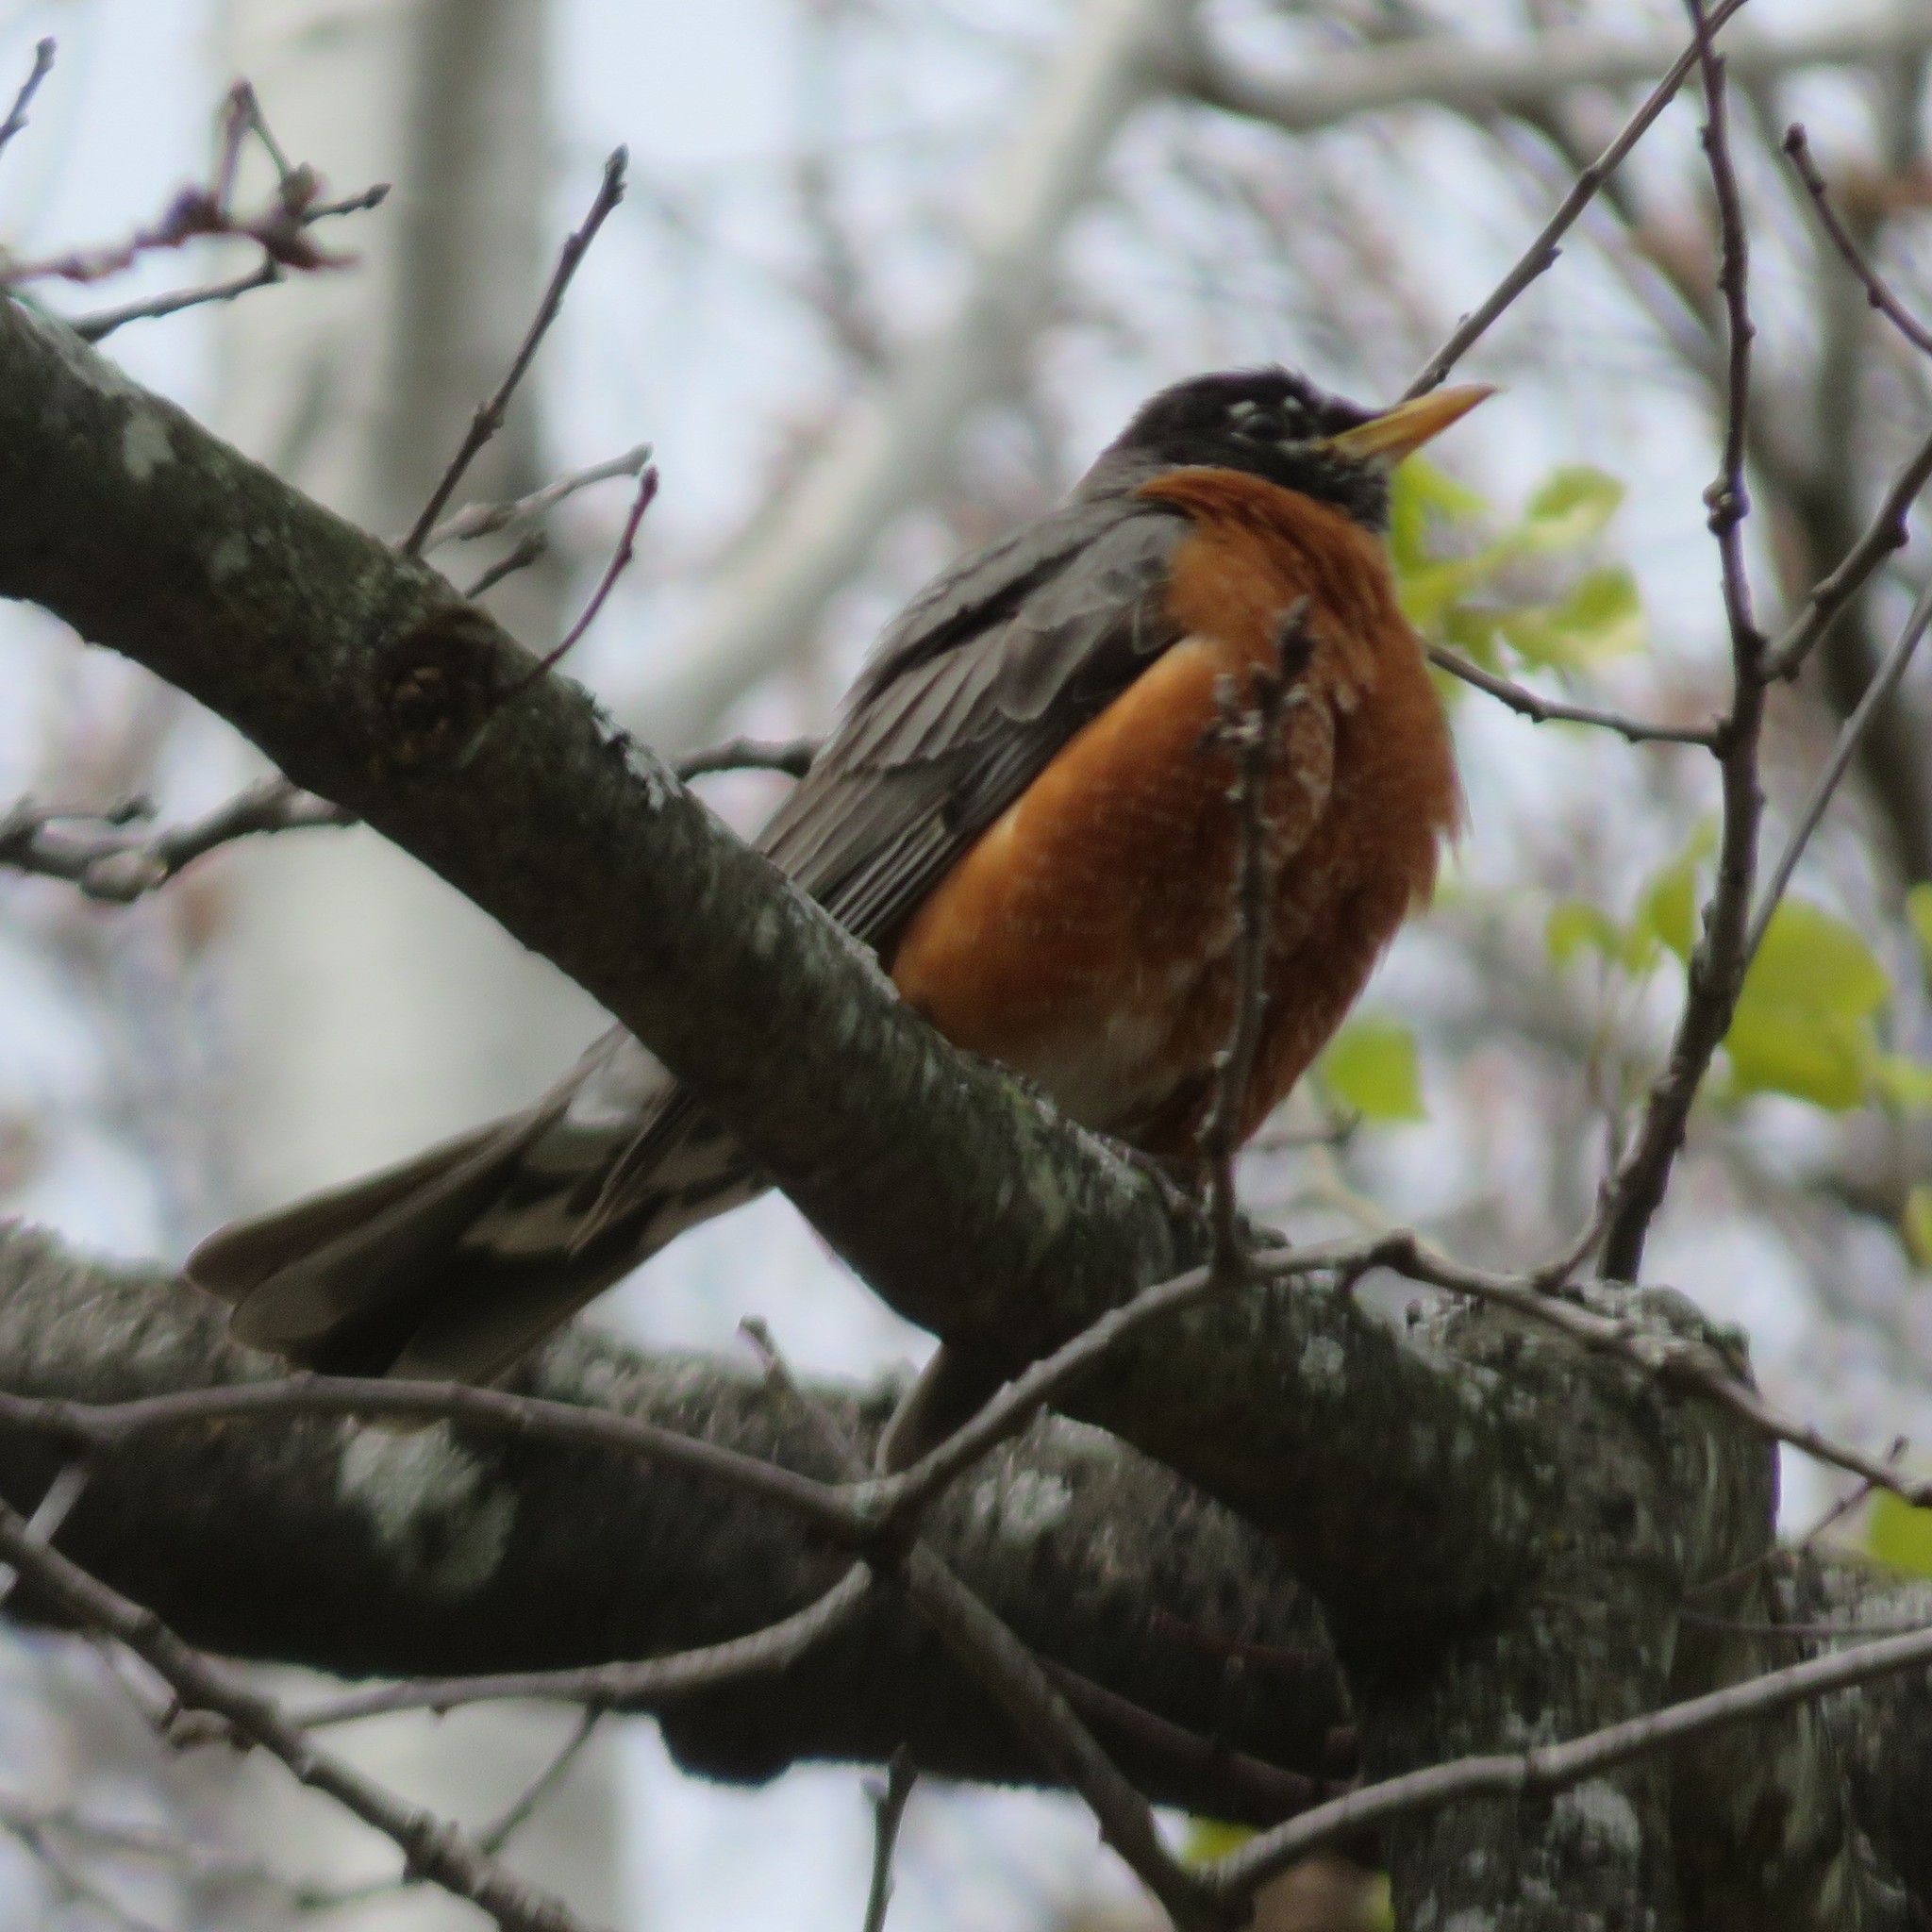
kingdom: Animalia
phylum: Chordata
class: Aves
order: Passeriformes
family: Turdidae
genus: Turdus
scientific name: Turdus migratorius
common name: American robin
